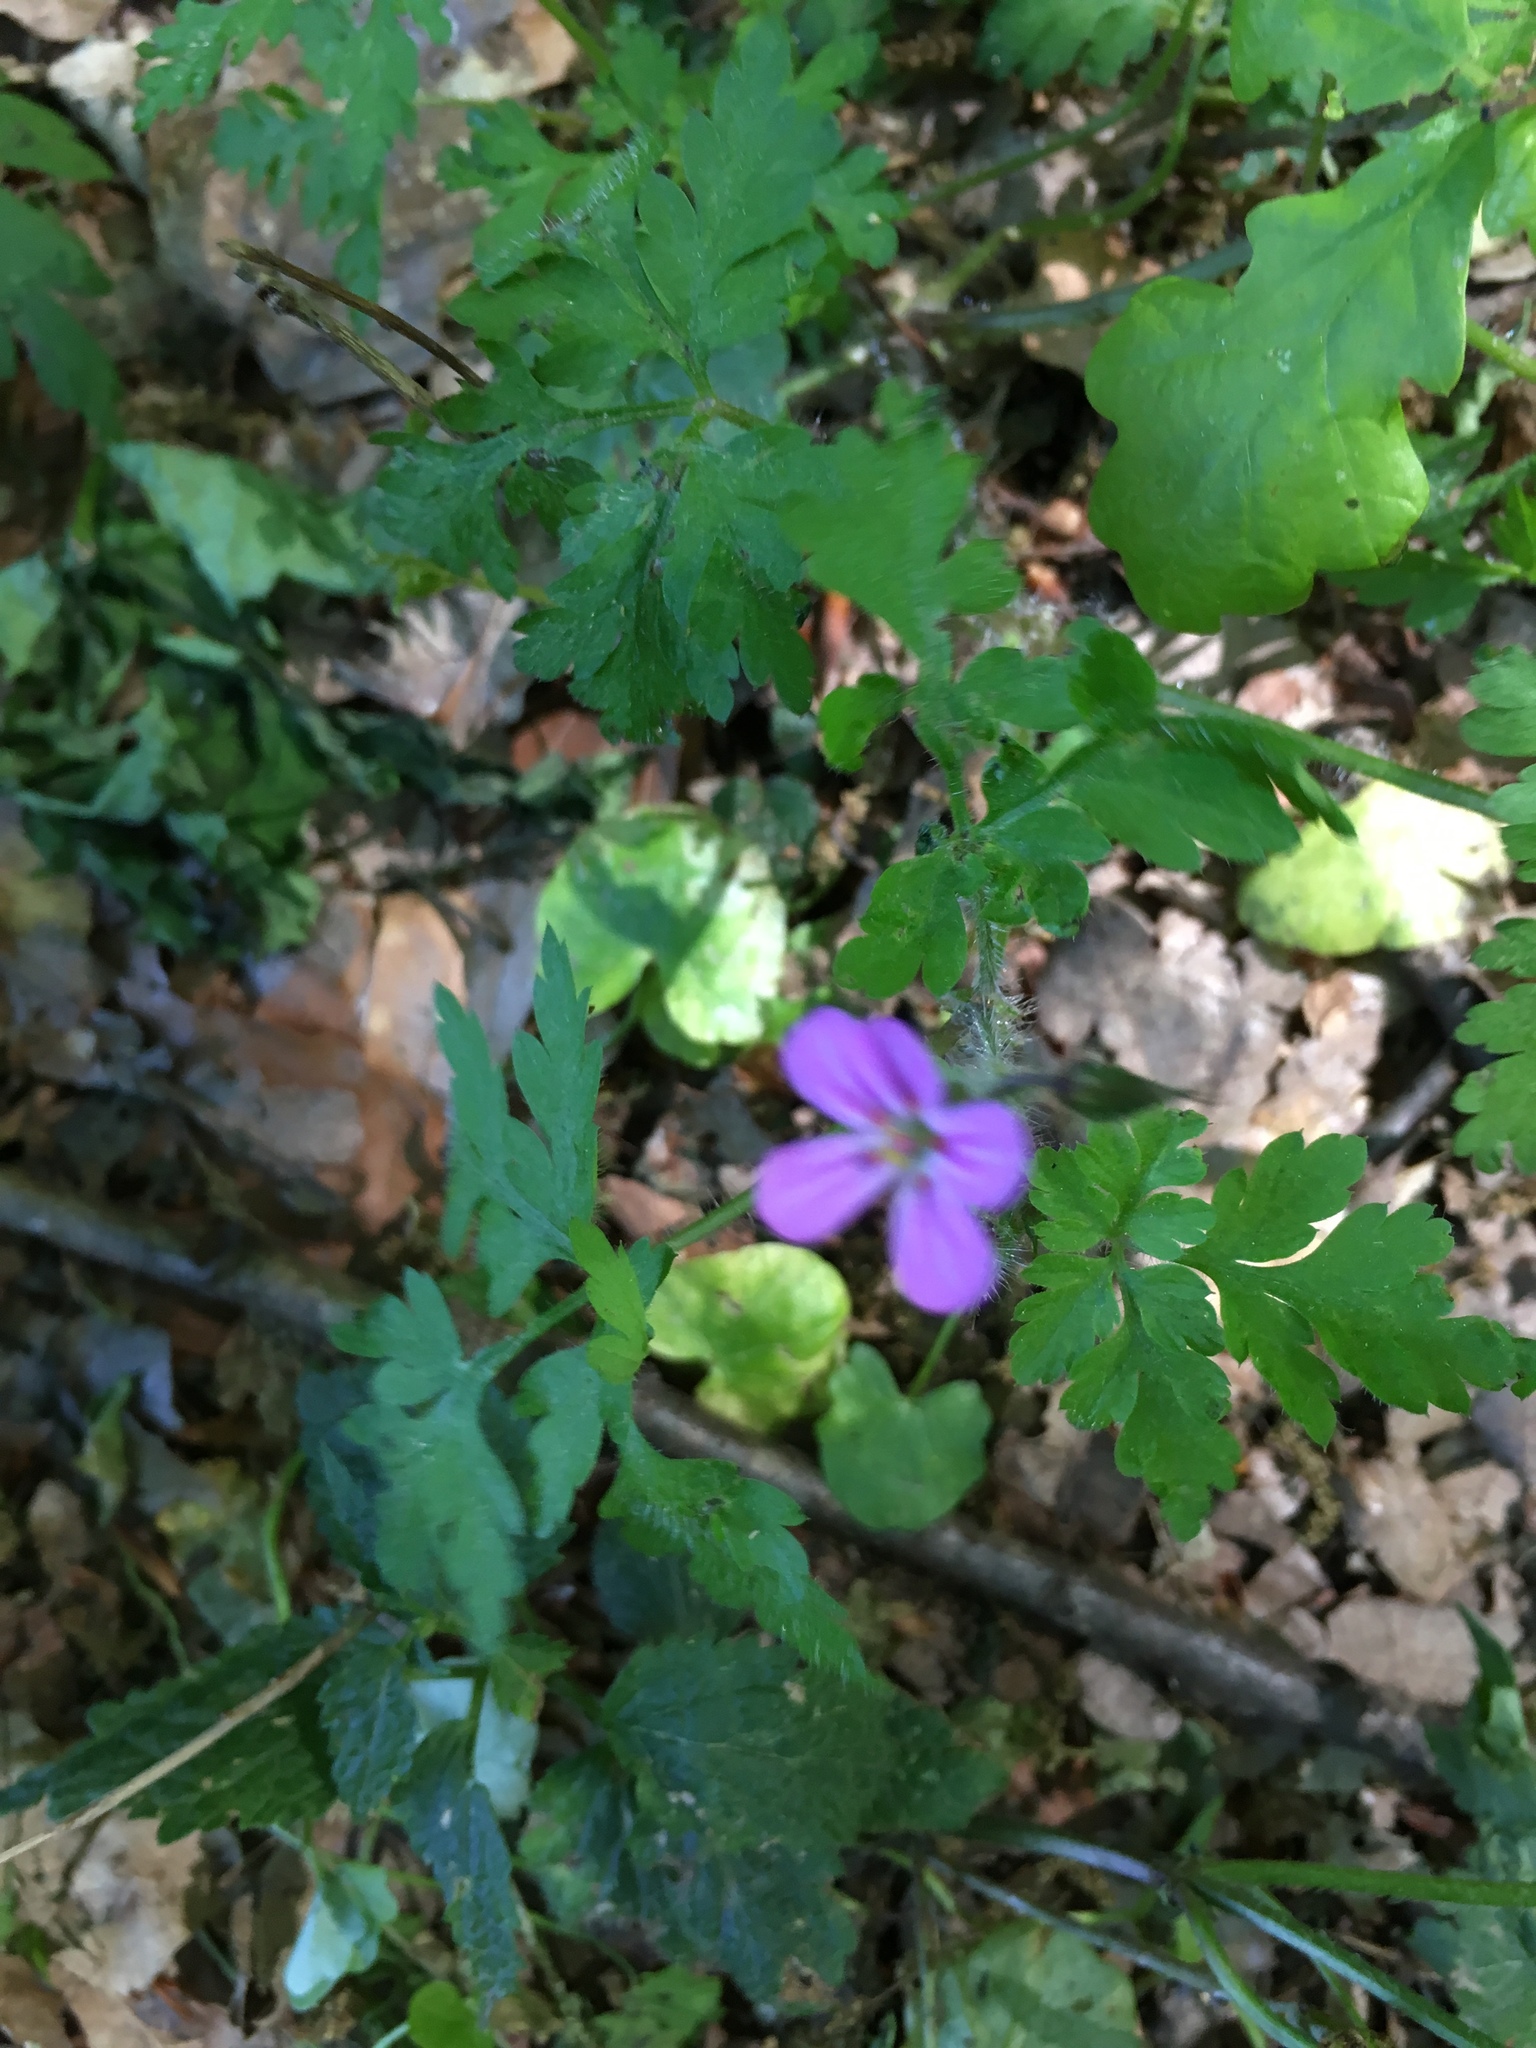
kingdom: Plantae
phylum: Tracheophyta
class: Magnoliopsida
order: Geraniales
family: Geraniaceae
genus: Geranium
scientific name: Geranium robertianum
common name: Herb-robert
